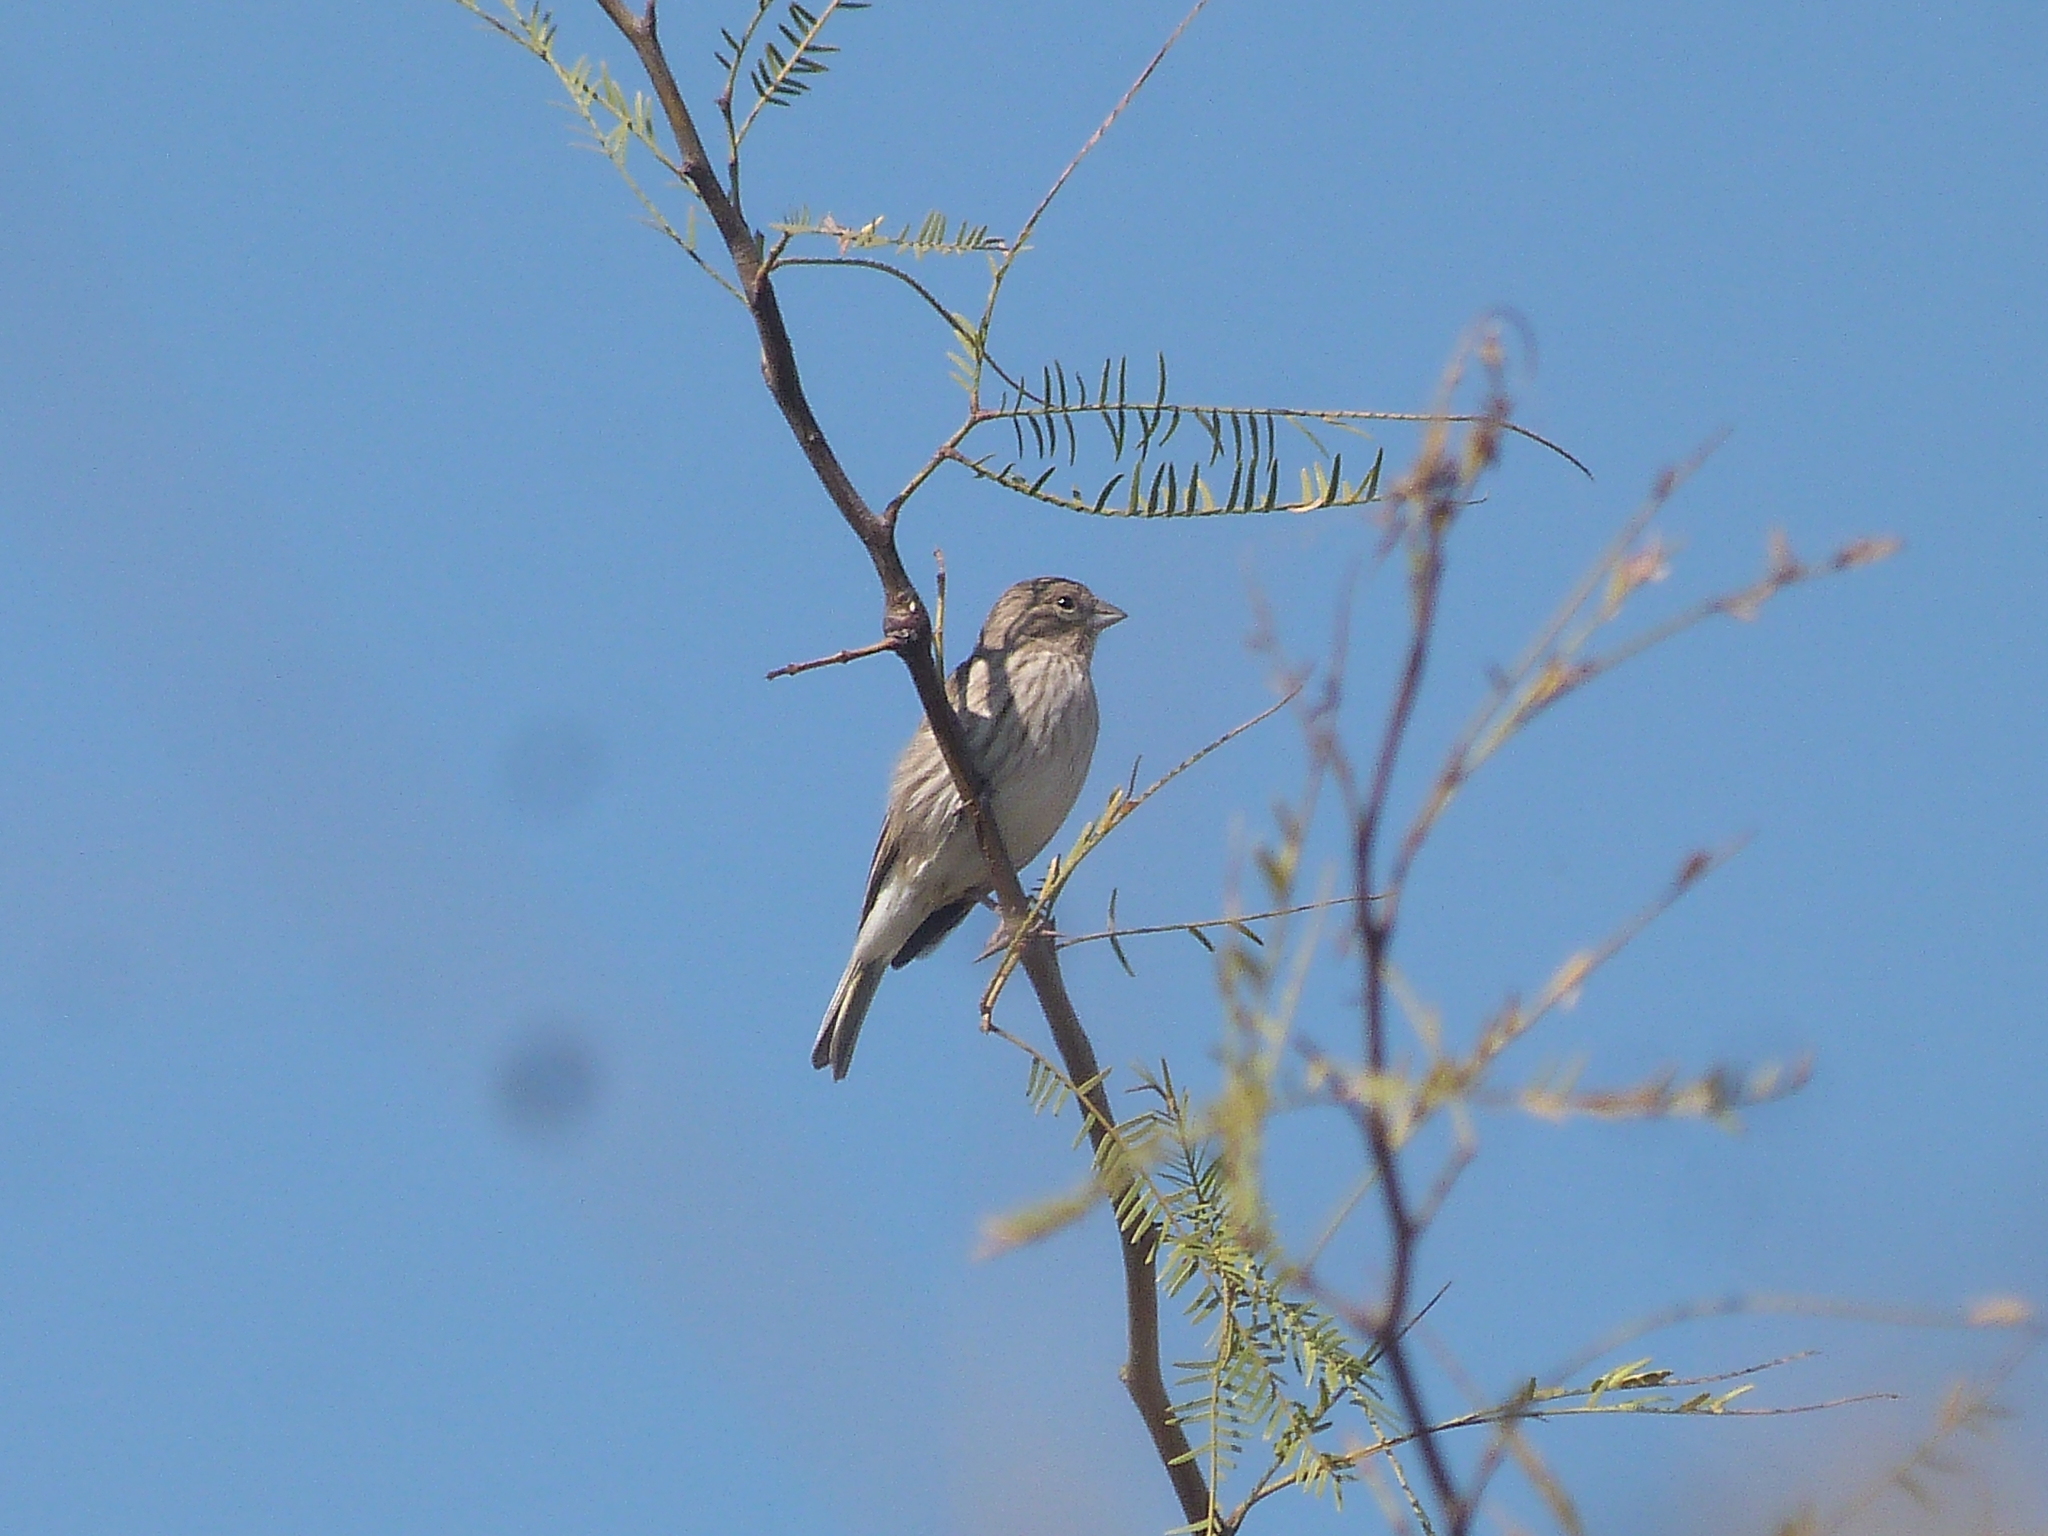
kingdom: Animalia
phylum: Chordata
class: Aves
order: Passeriformes
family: Thraupidae
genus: Sicalis
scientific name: Sicalis flaveola
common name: Saffron finch
